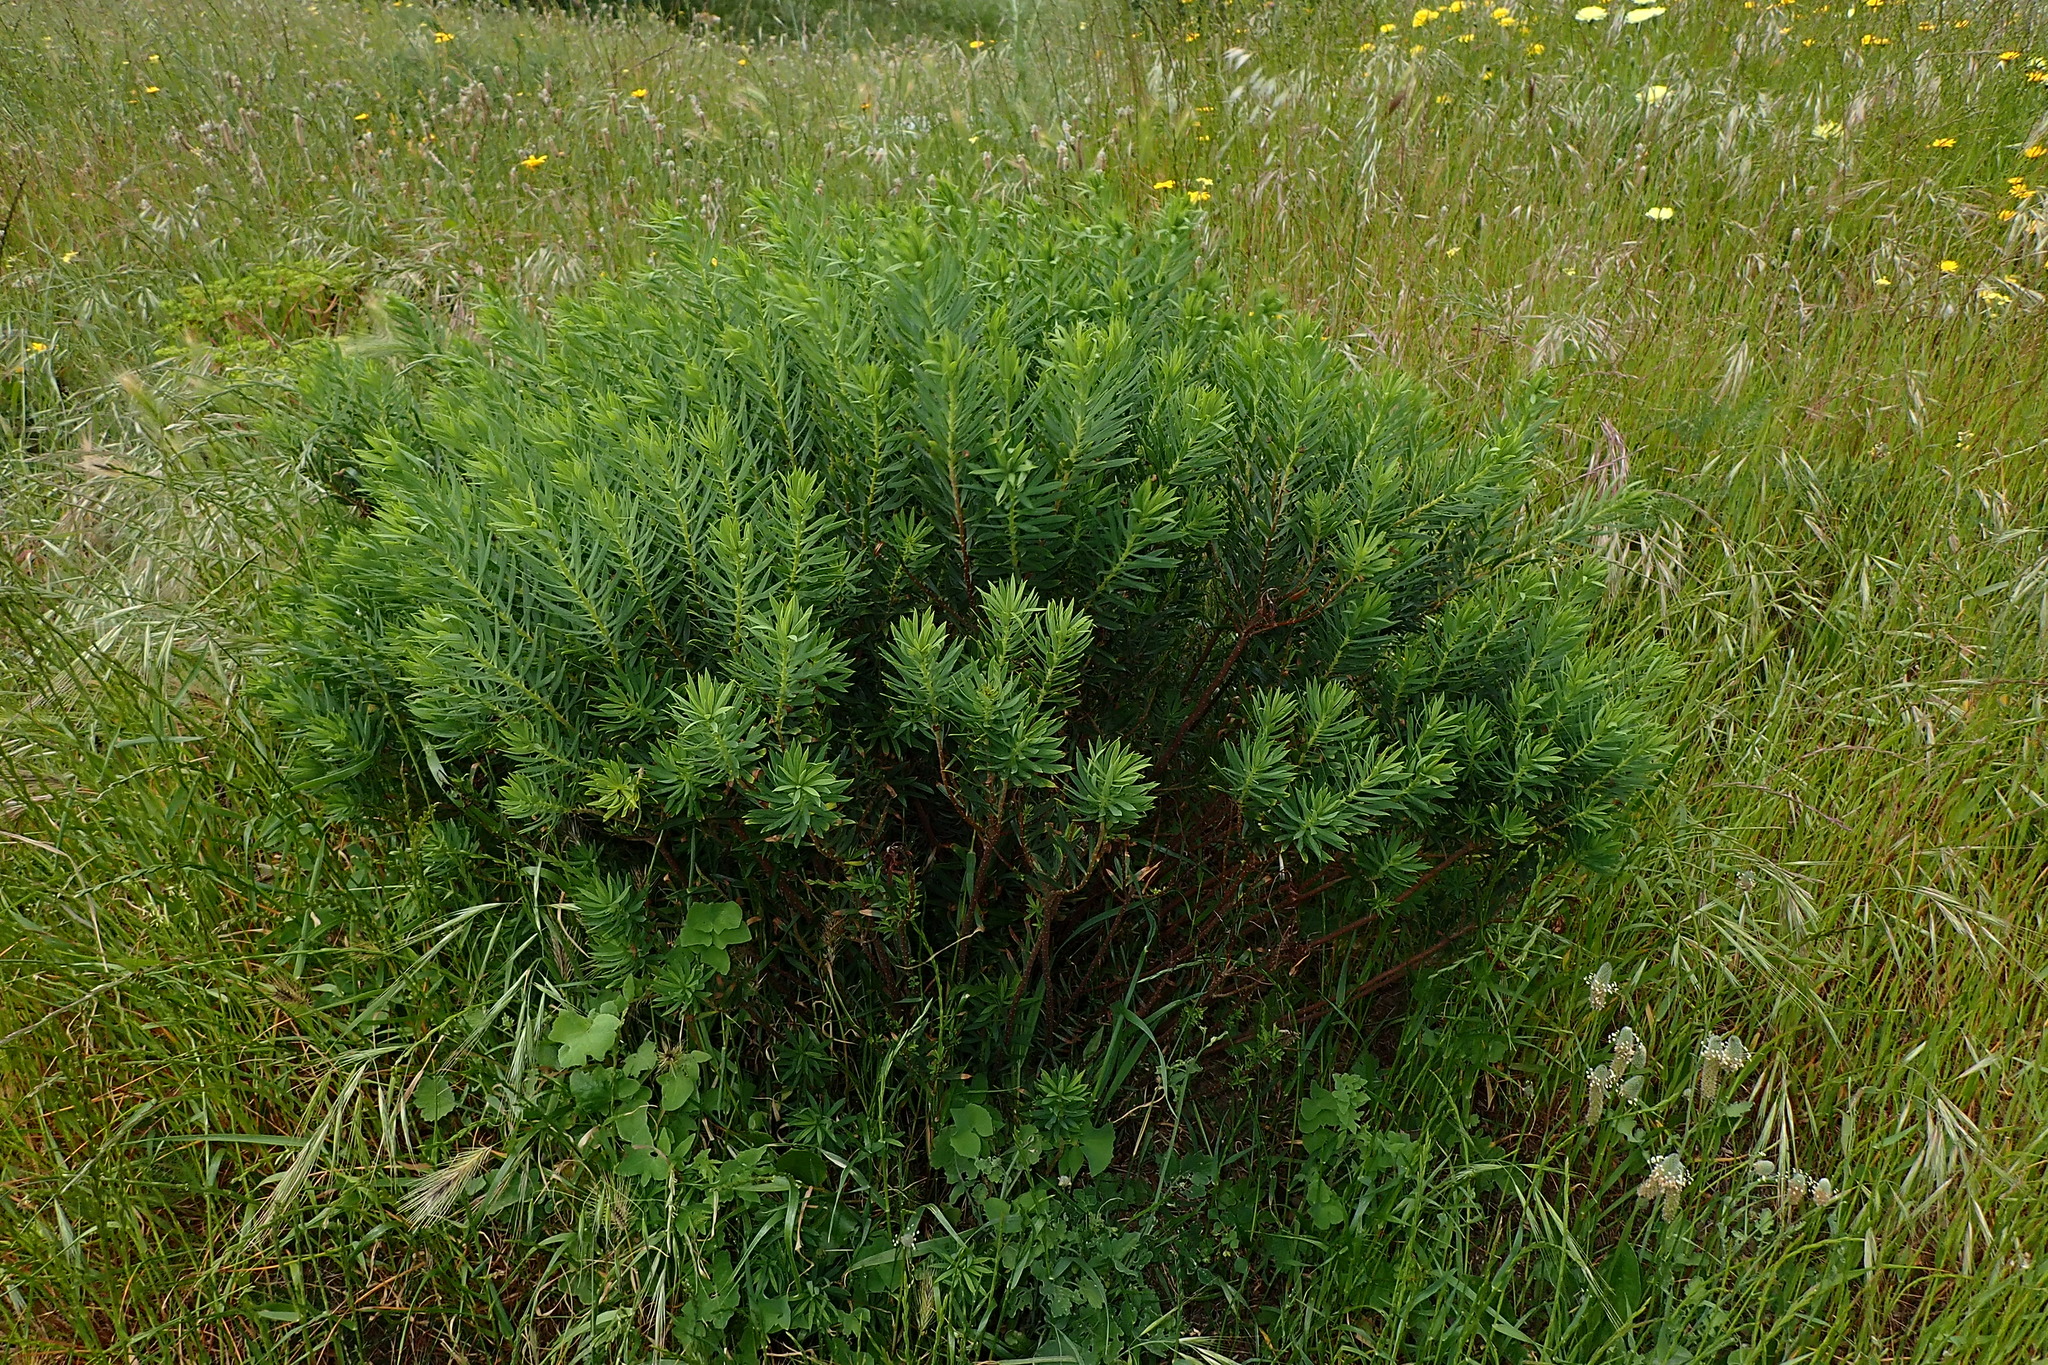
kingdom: Plantae
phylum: Tracheophyta
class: Magnoliopsida
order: Malvales
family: Thymelaeaceae
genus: Daphne
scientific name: Daphne gnidium
